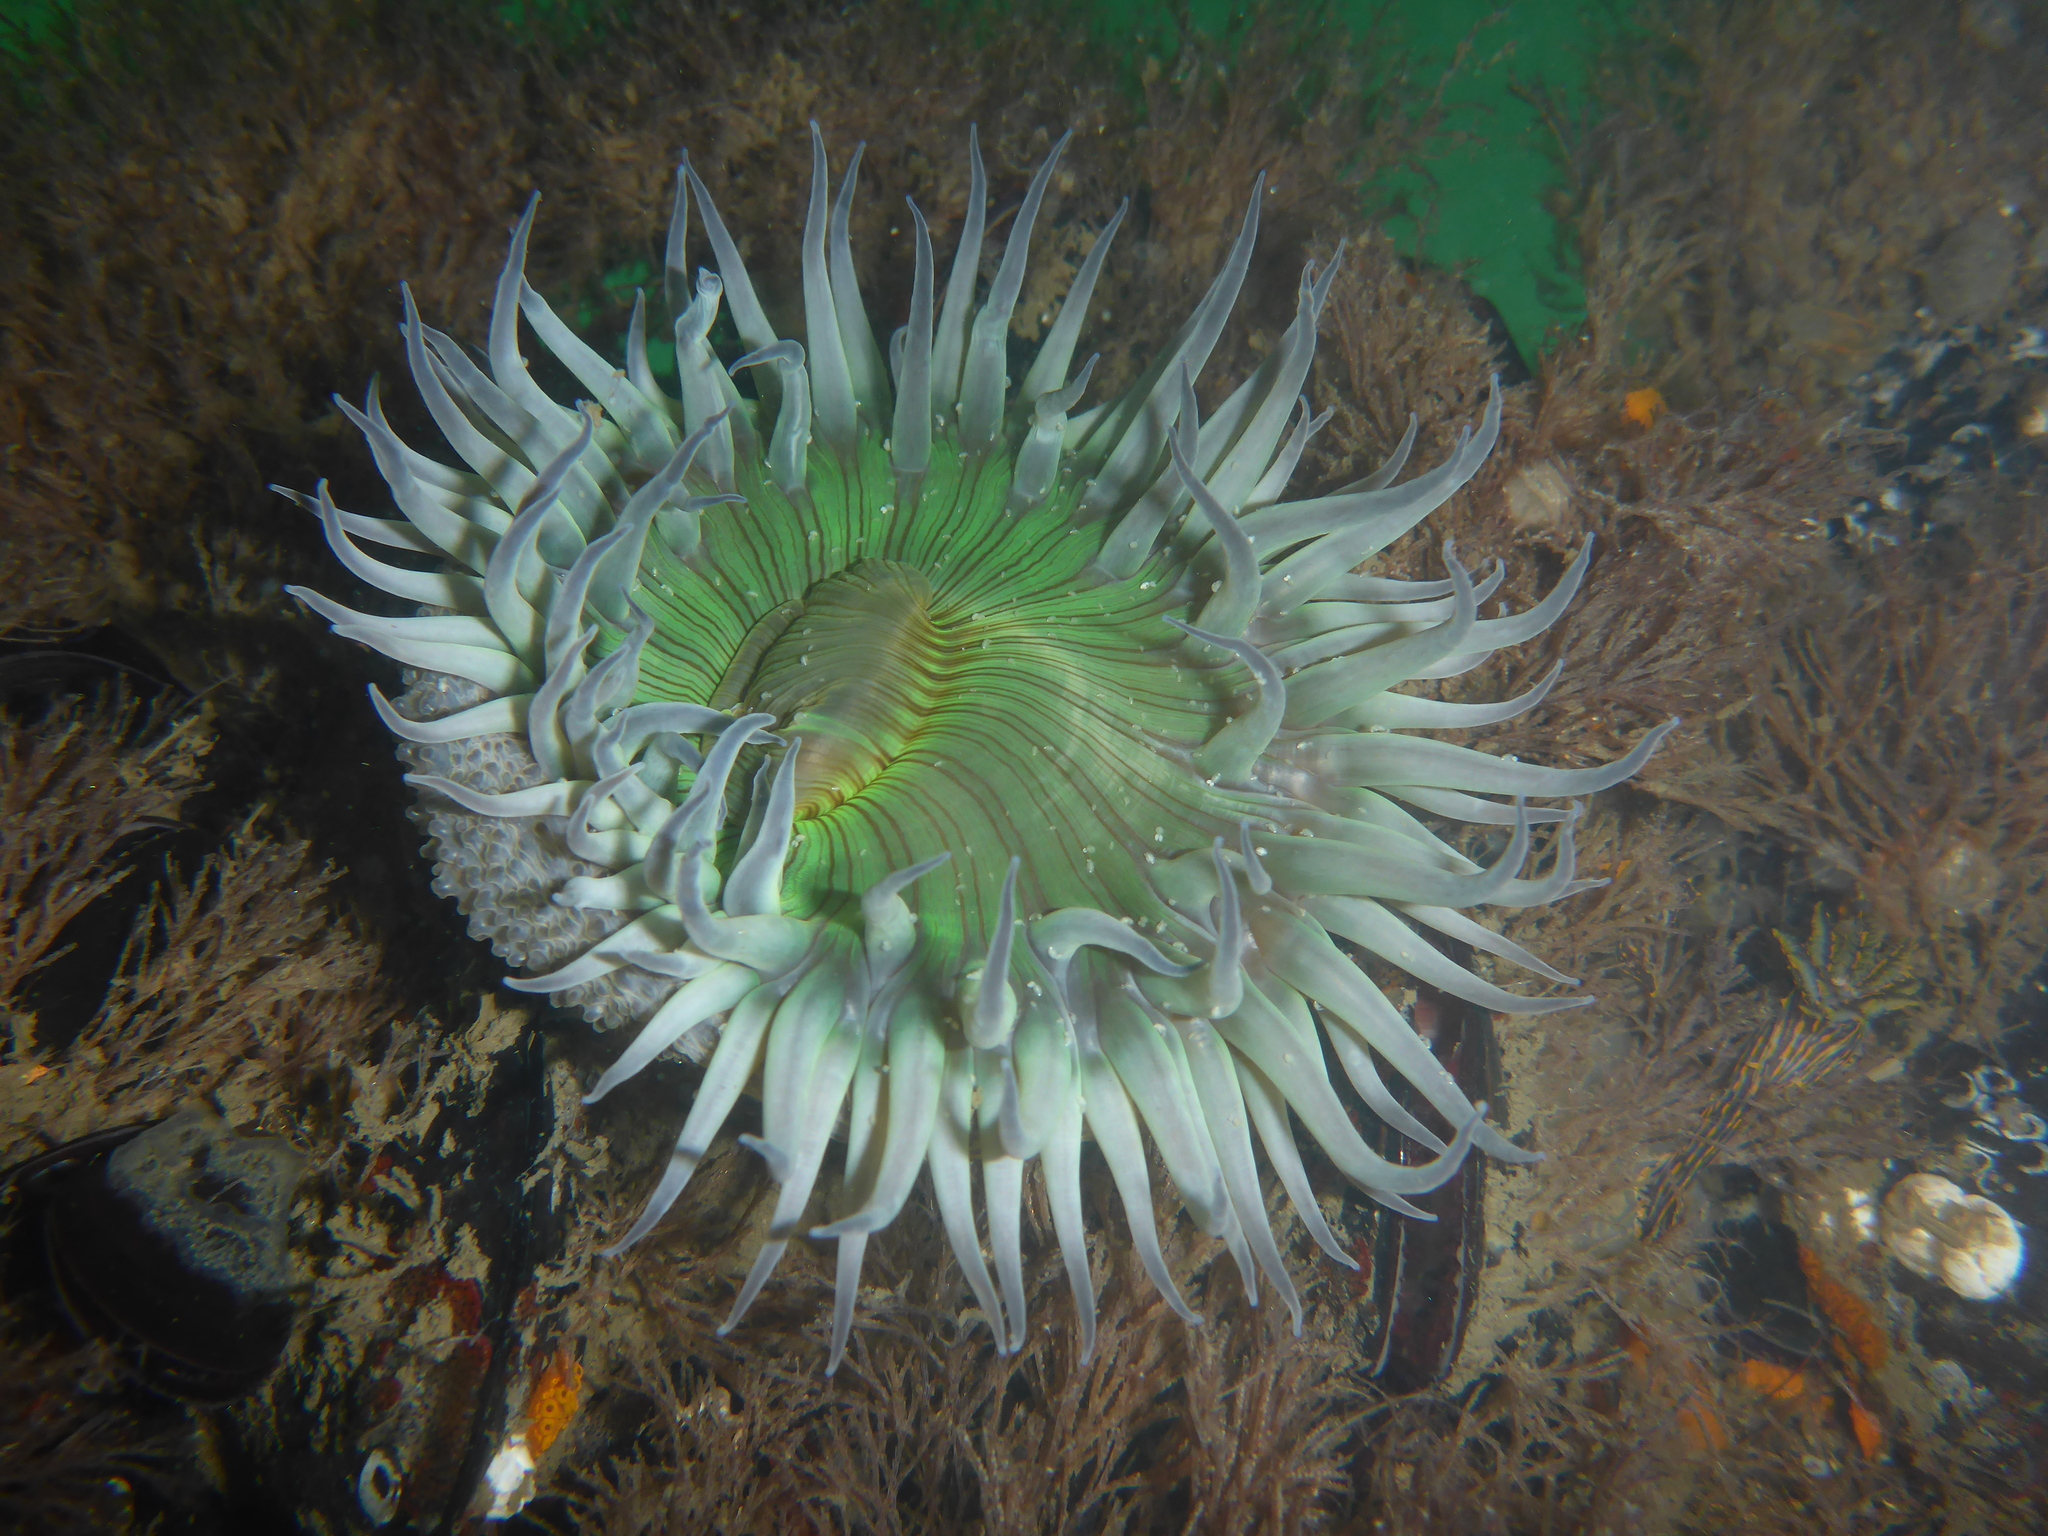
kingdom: Animalia
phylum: Cnidaria
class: Anthozoa
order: Actiniaria
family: Actiniidae
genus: Anthopleura
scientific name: Anthopleura sola
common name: Sun anemone
